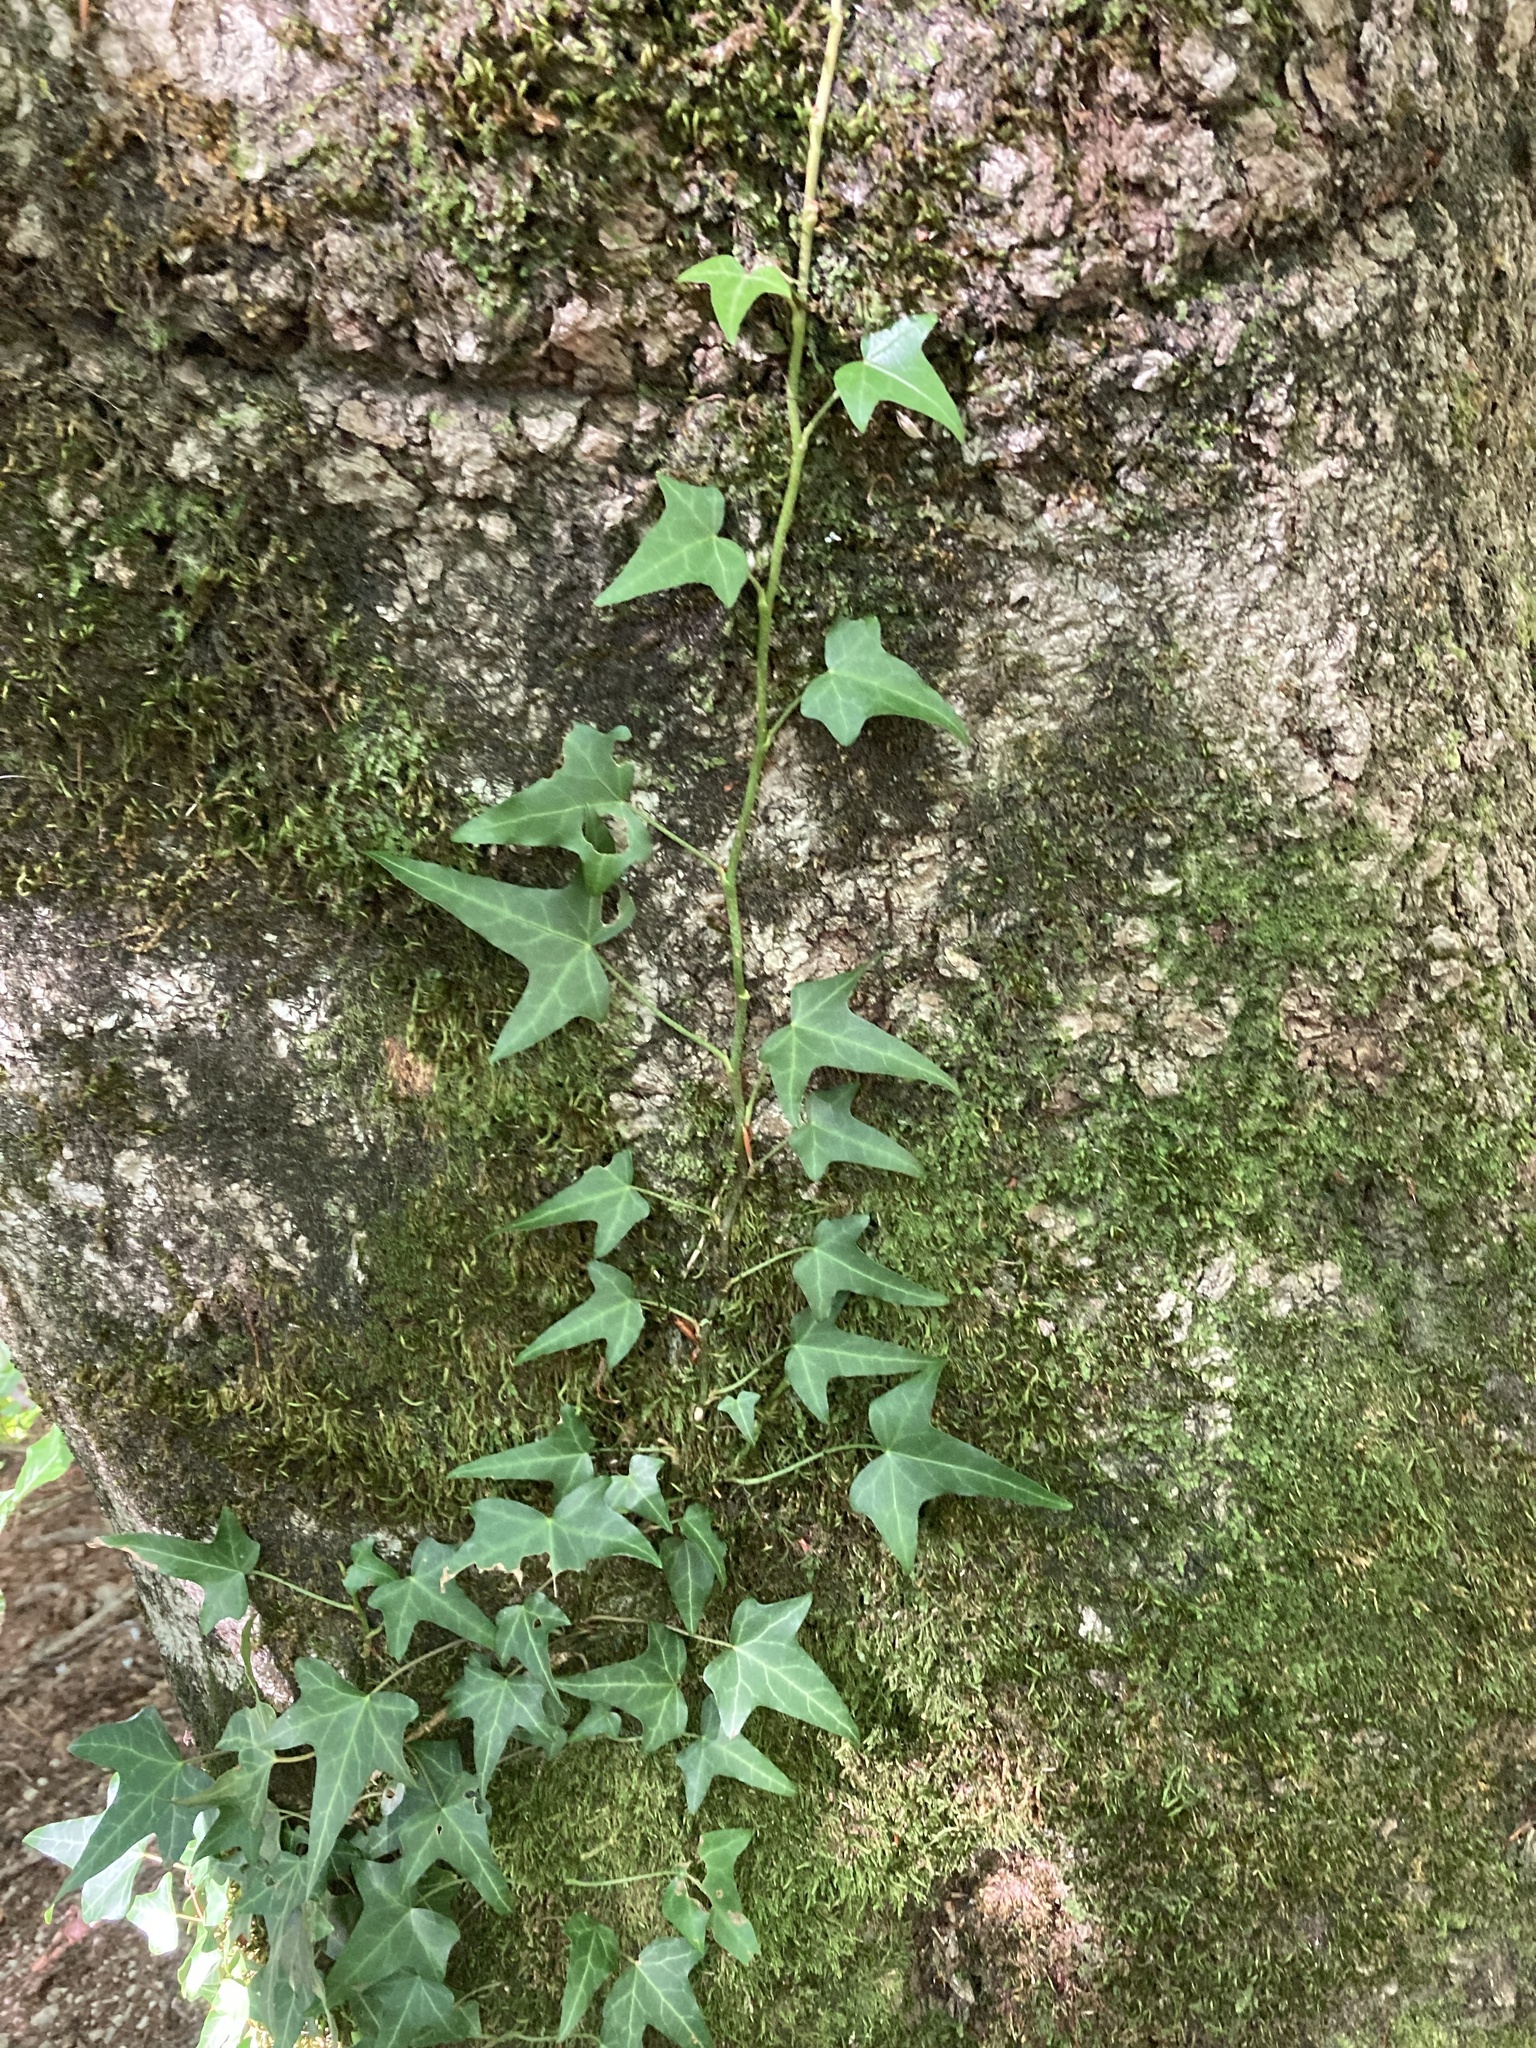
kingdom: Plantae
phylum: Tracheophyta
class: Magnoliopsida
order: Apiales
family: Araliaceae
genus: Hedera
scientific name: Hedera helix
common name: Ivy
